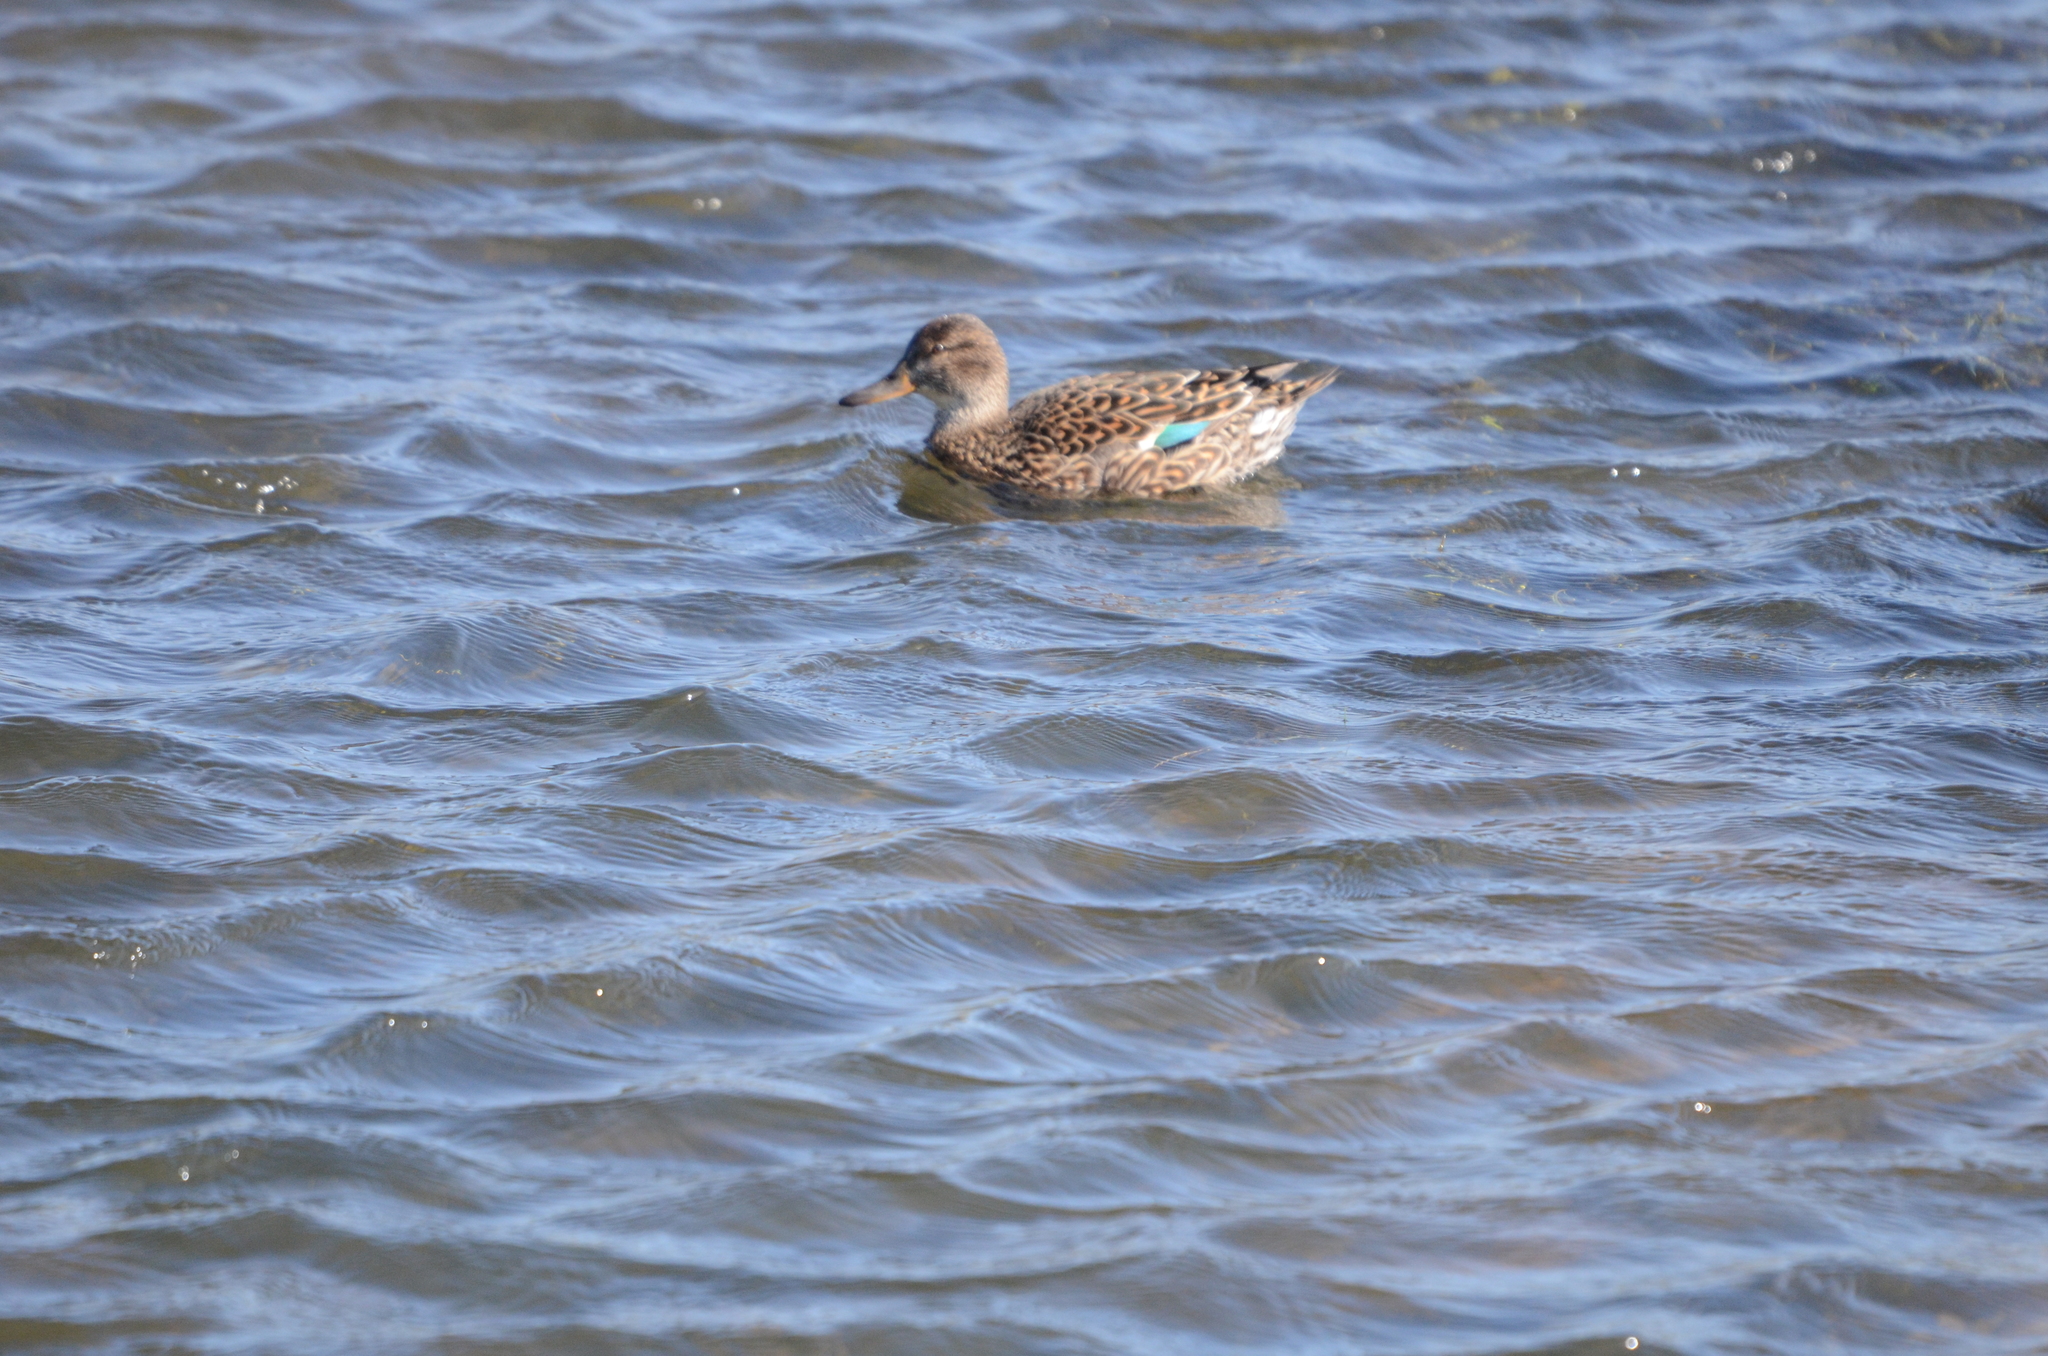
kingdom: Animalia
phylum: Chordata
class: Aves
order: Anseriformes
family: Anatidae
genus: Anas
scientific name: Anas crecca
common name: Eurasian teal
